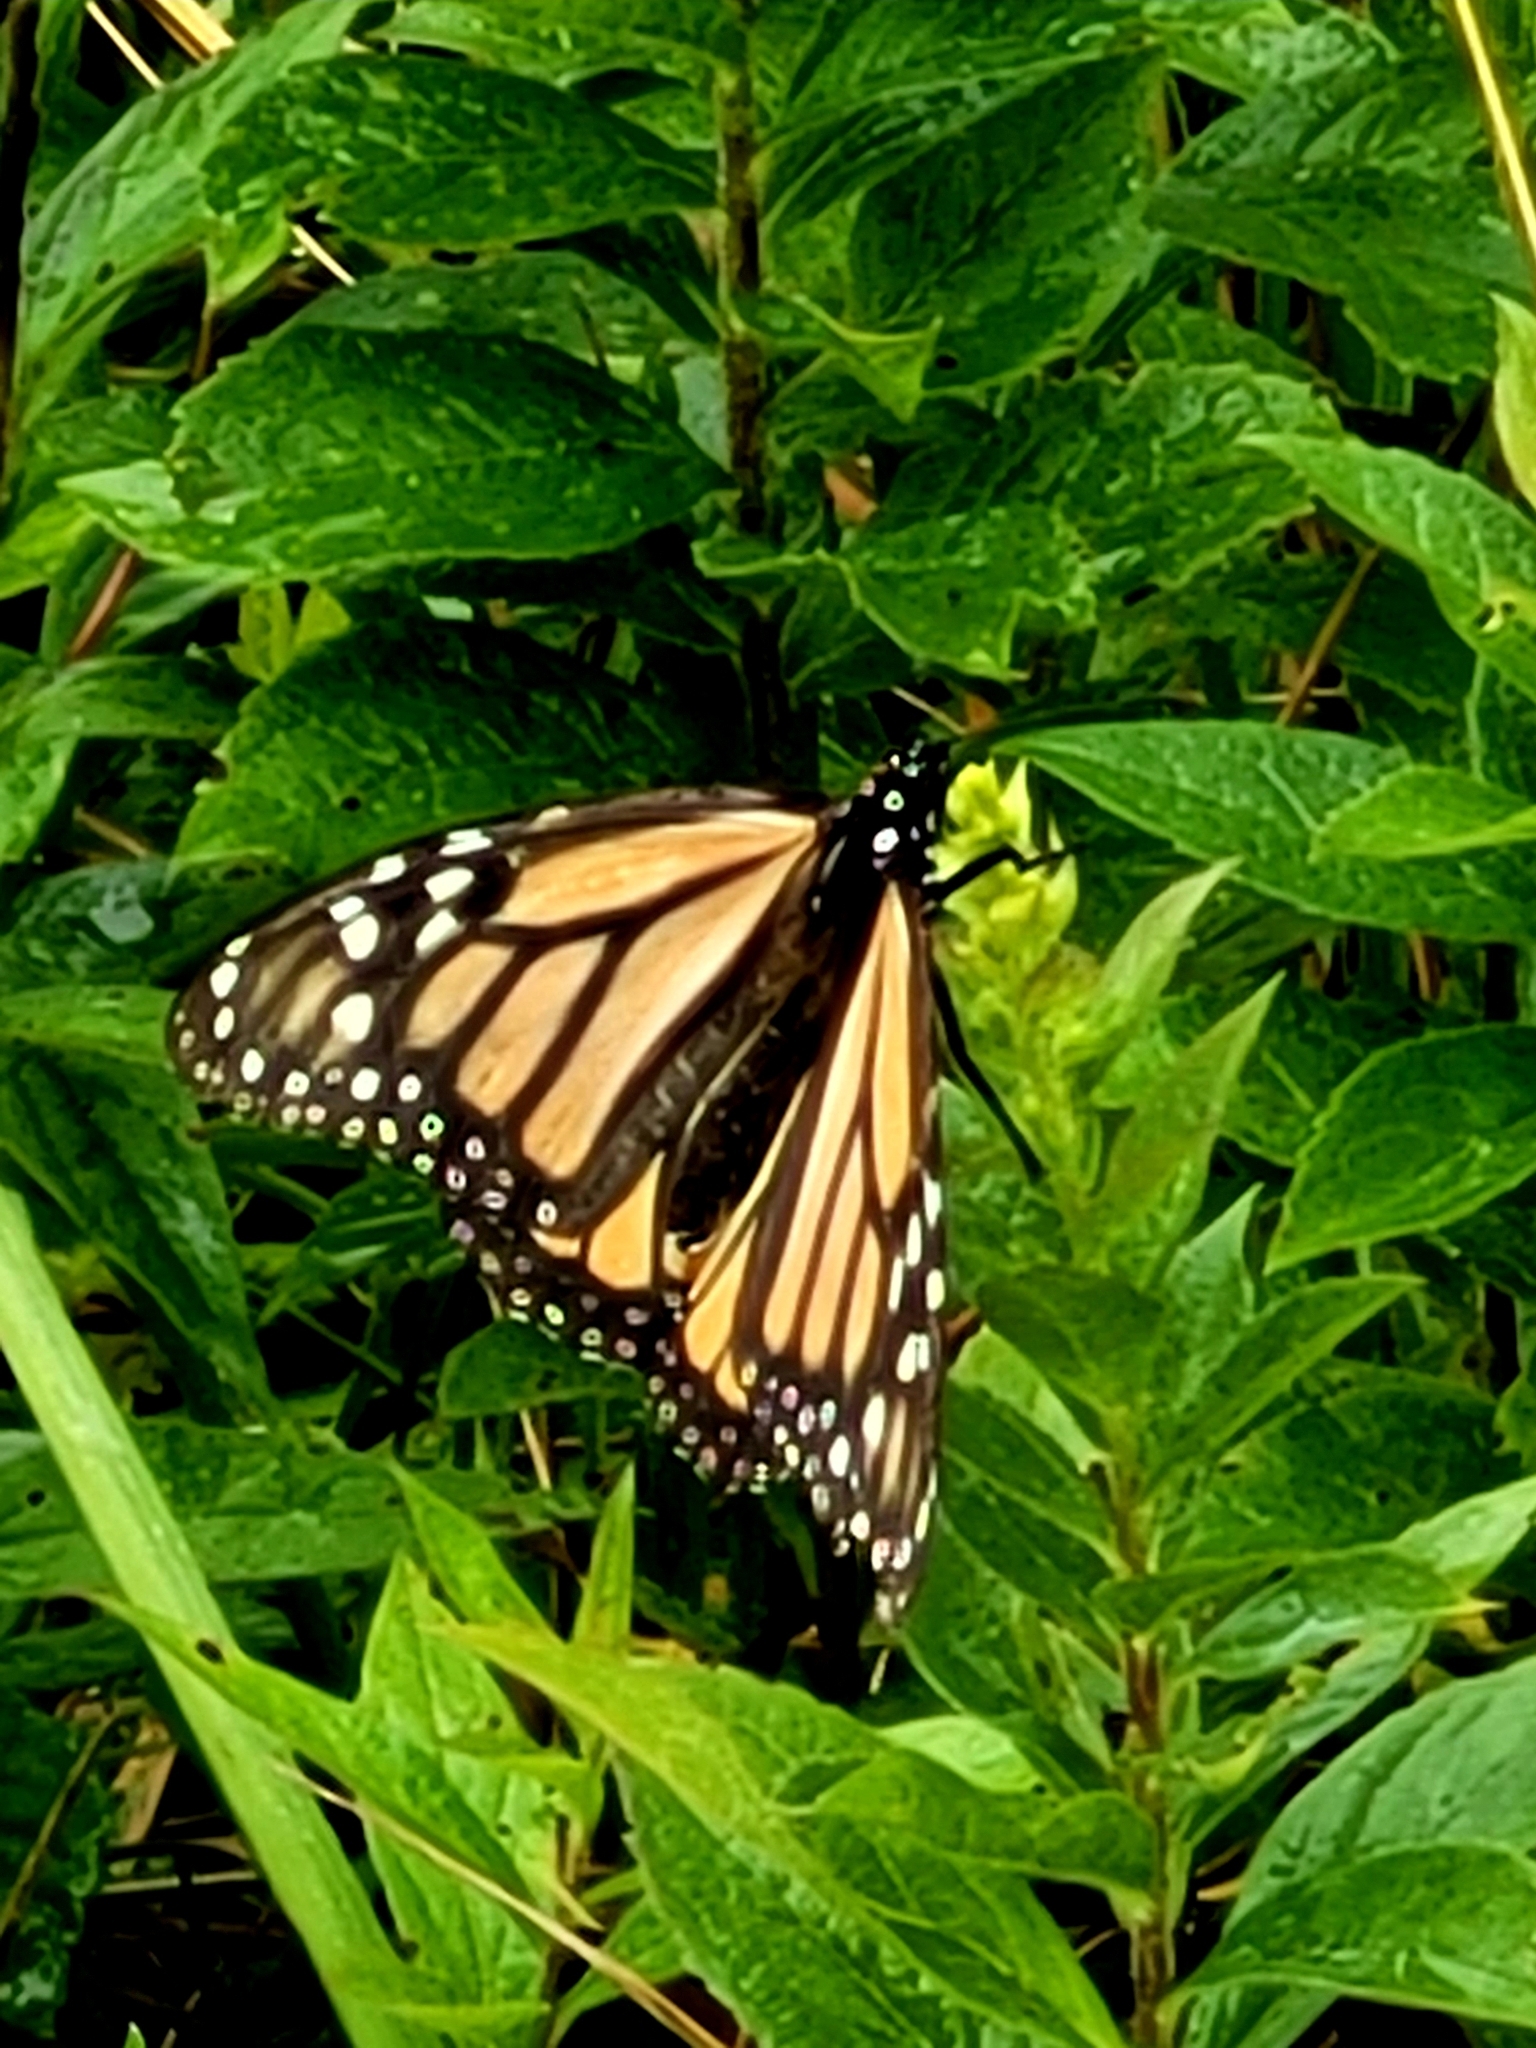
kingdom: Animalia
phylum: Arthropoda
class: Insecta
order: Lepidoptera
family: Nymphalidae
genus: Danaus
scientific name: Danaus plexippus
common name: Monarch
